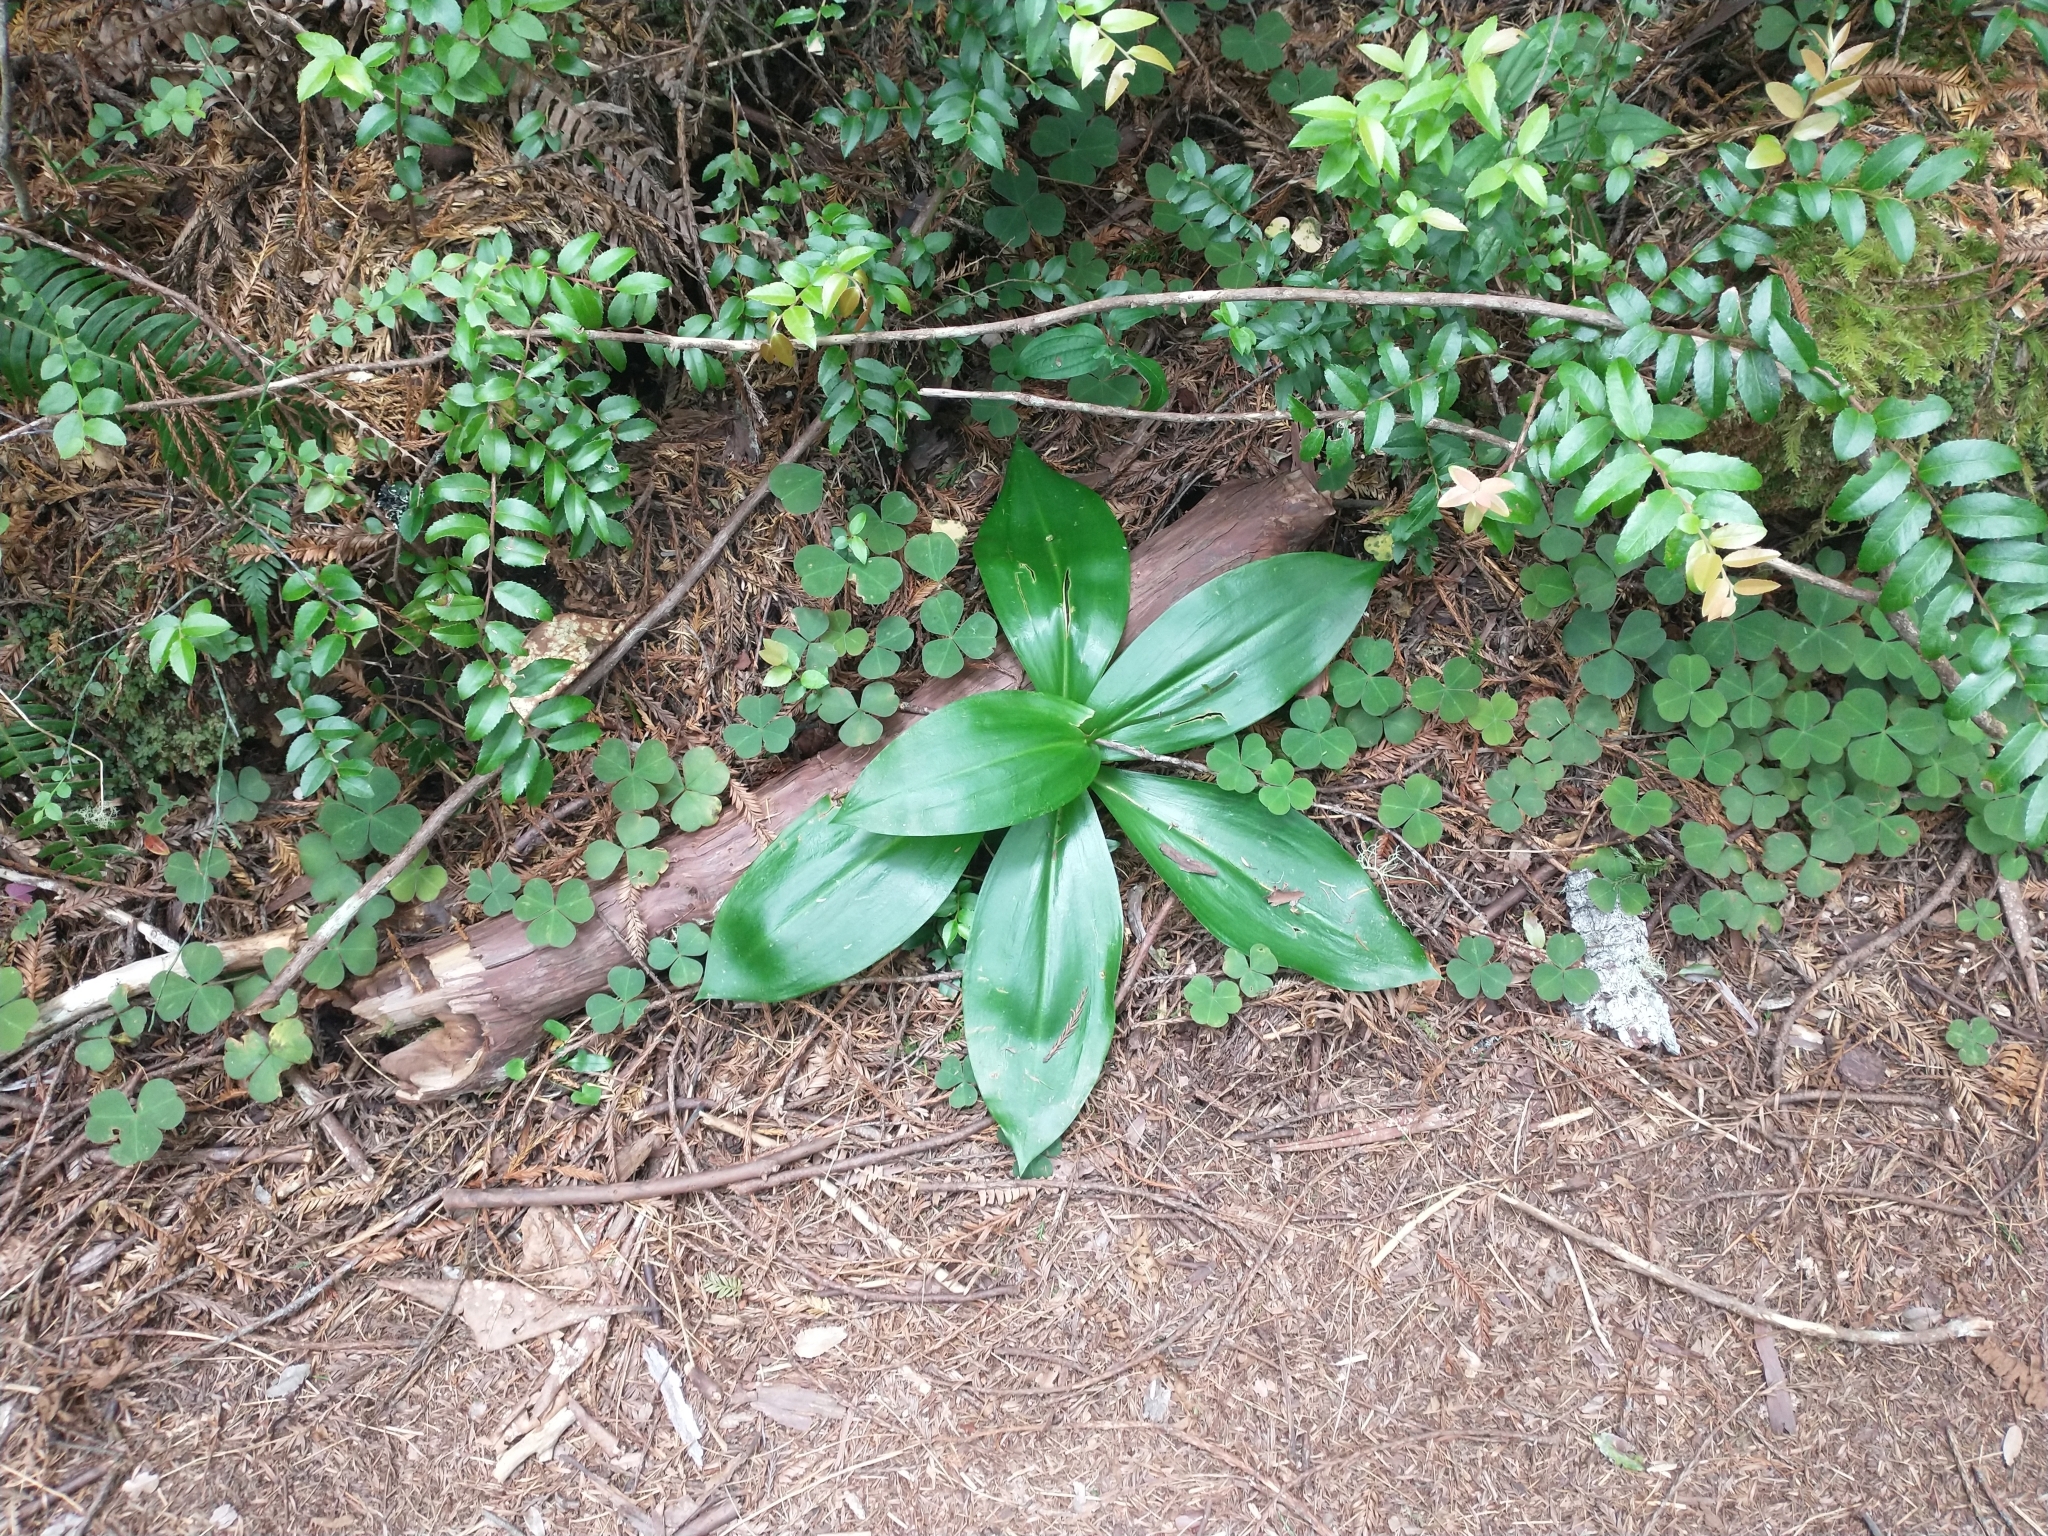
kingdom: Plantae
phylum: Tracheophyta
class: Liliopsida
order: Liliales
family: Liliaceae
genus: Clintonia
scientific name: Clintonia andrewsiana
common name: Red clintonia
